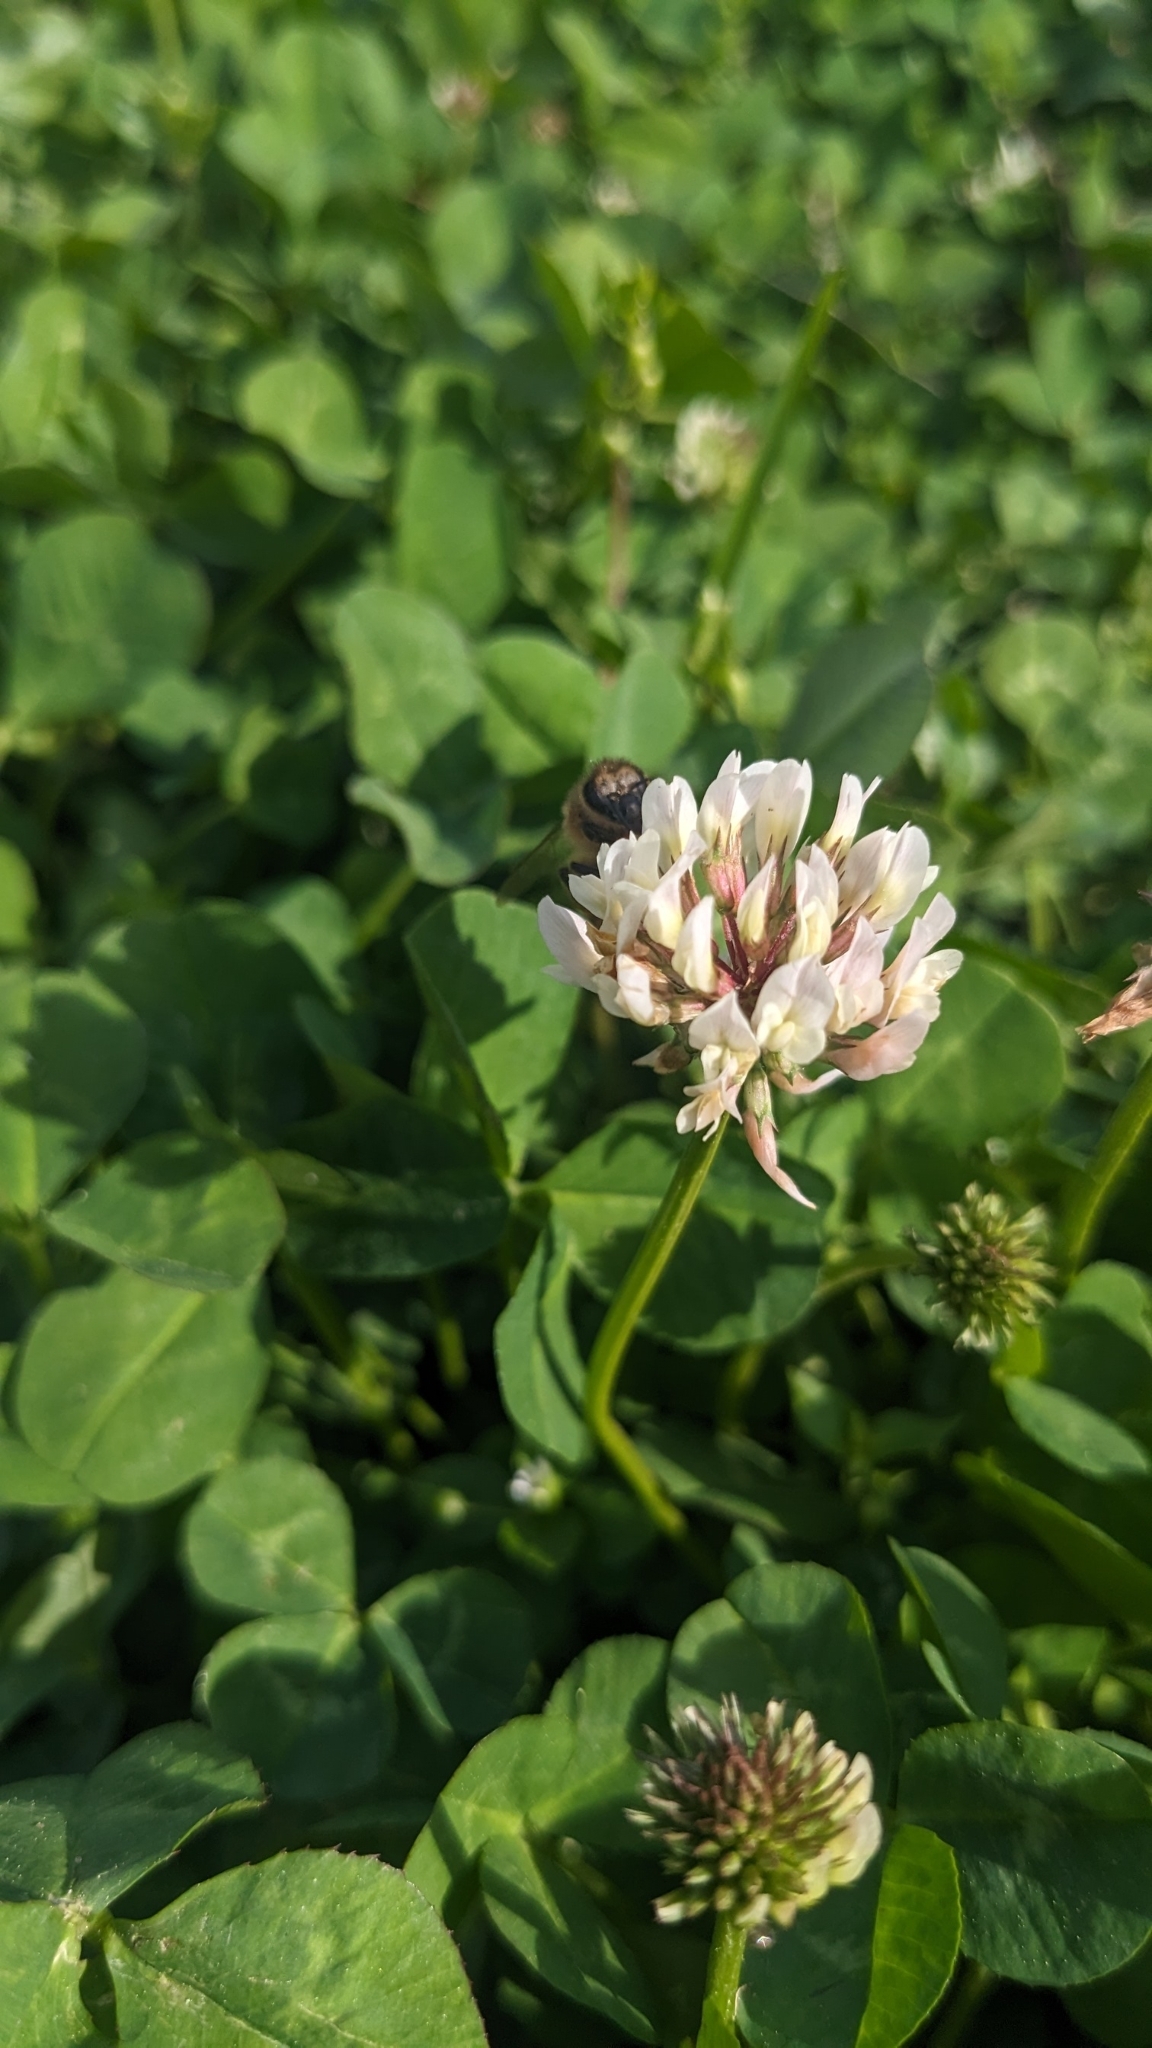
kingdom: Animalia
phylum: Arthropoda
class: Insecta
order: Hymenoptera
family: Apidae
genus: Apis
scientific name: Apis mellifera
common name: Honey bee
